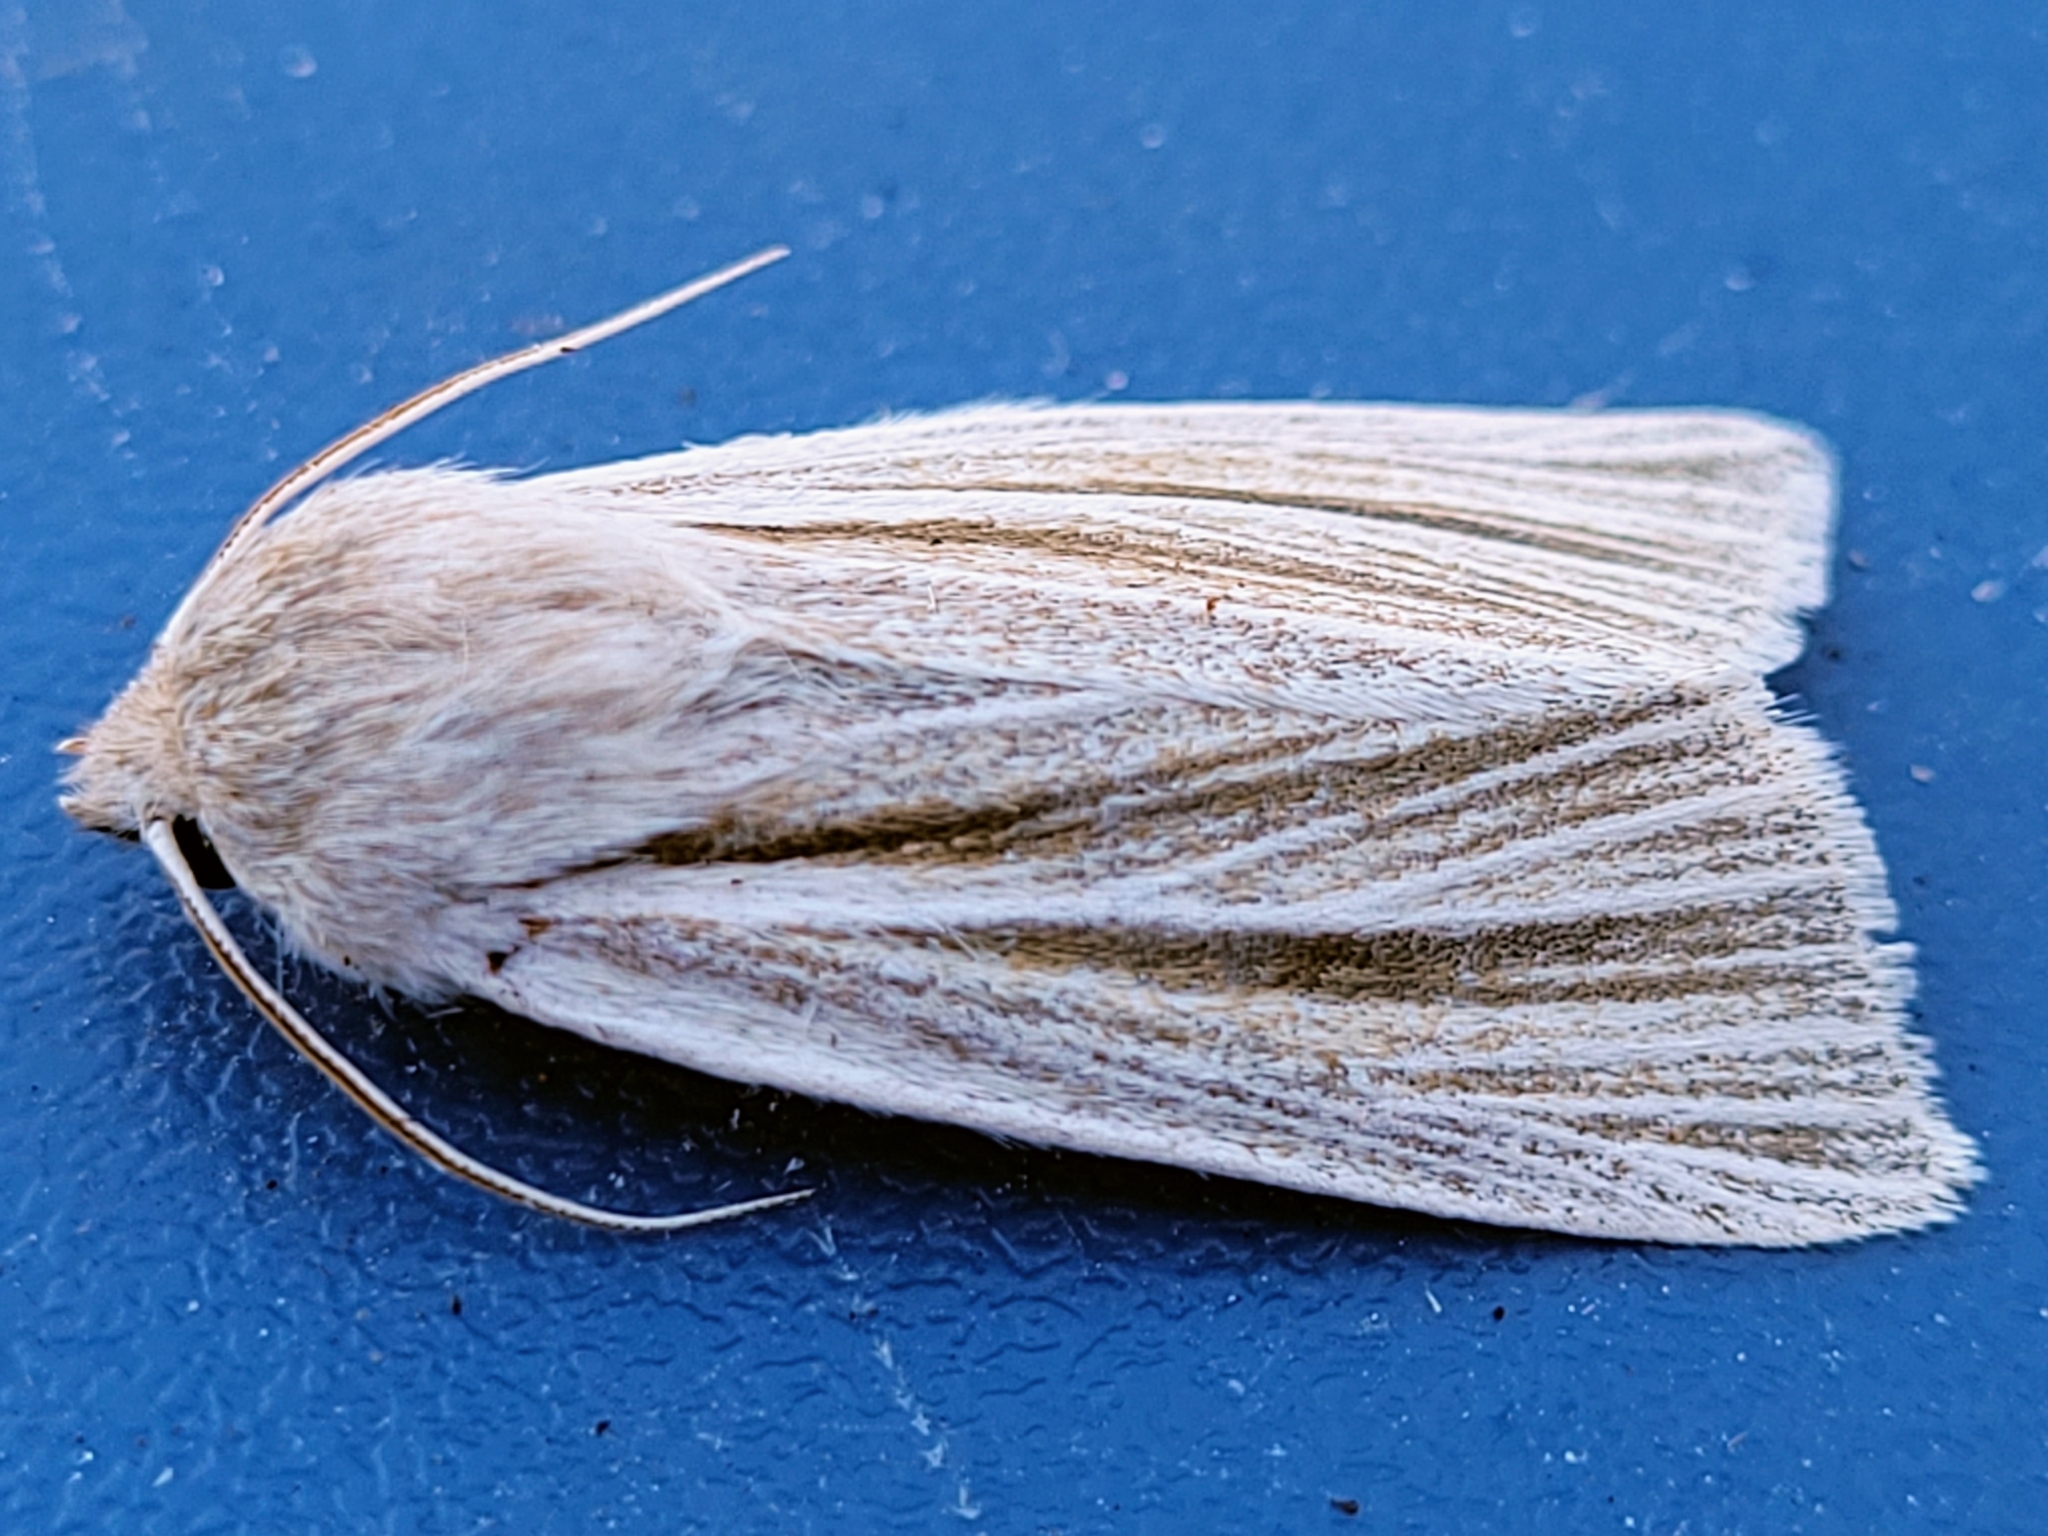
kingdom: Animalia
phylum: Arthropoda
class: Insecta
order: Lepidoptera
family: Noctuidae
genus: Acronicta
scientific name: Acronicta insularis
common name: Henry's marsh moth
